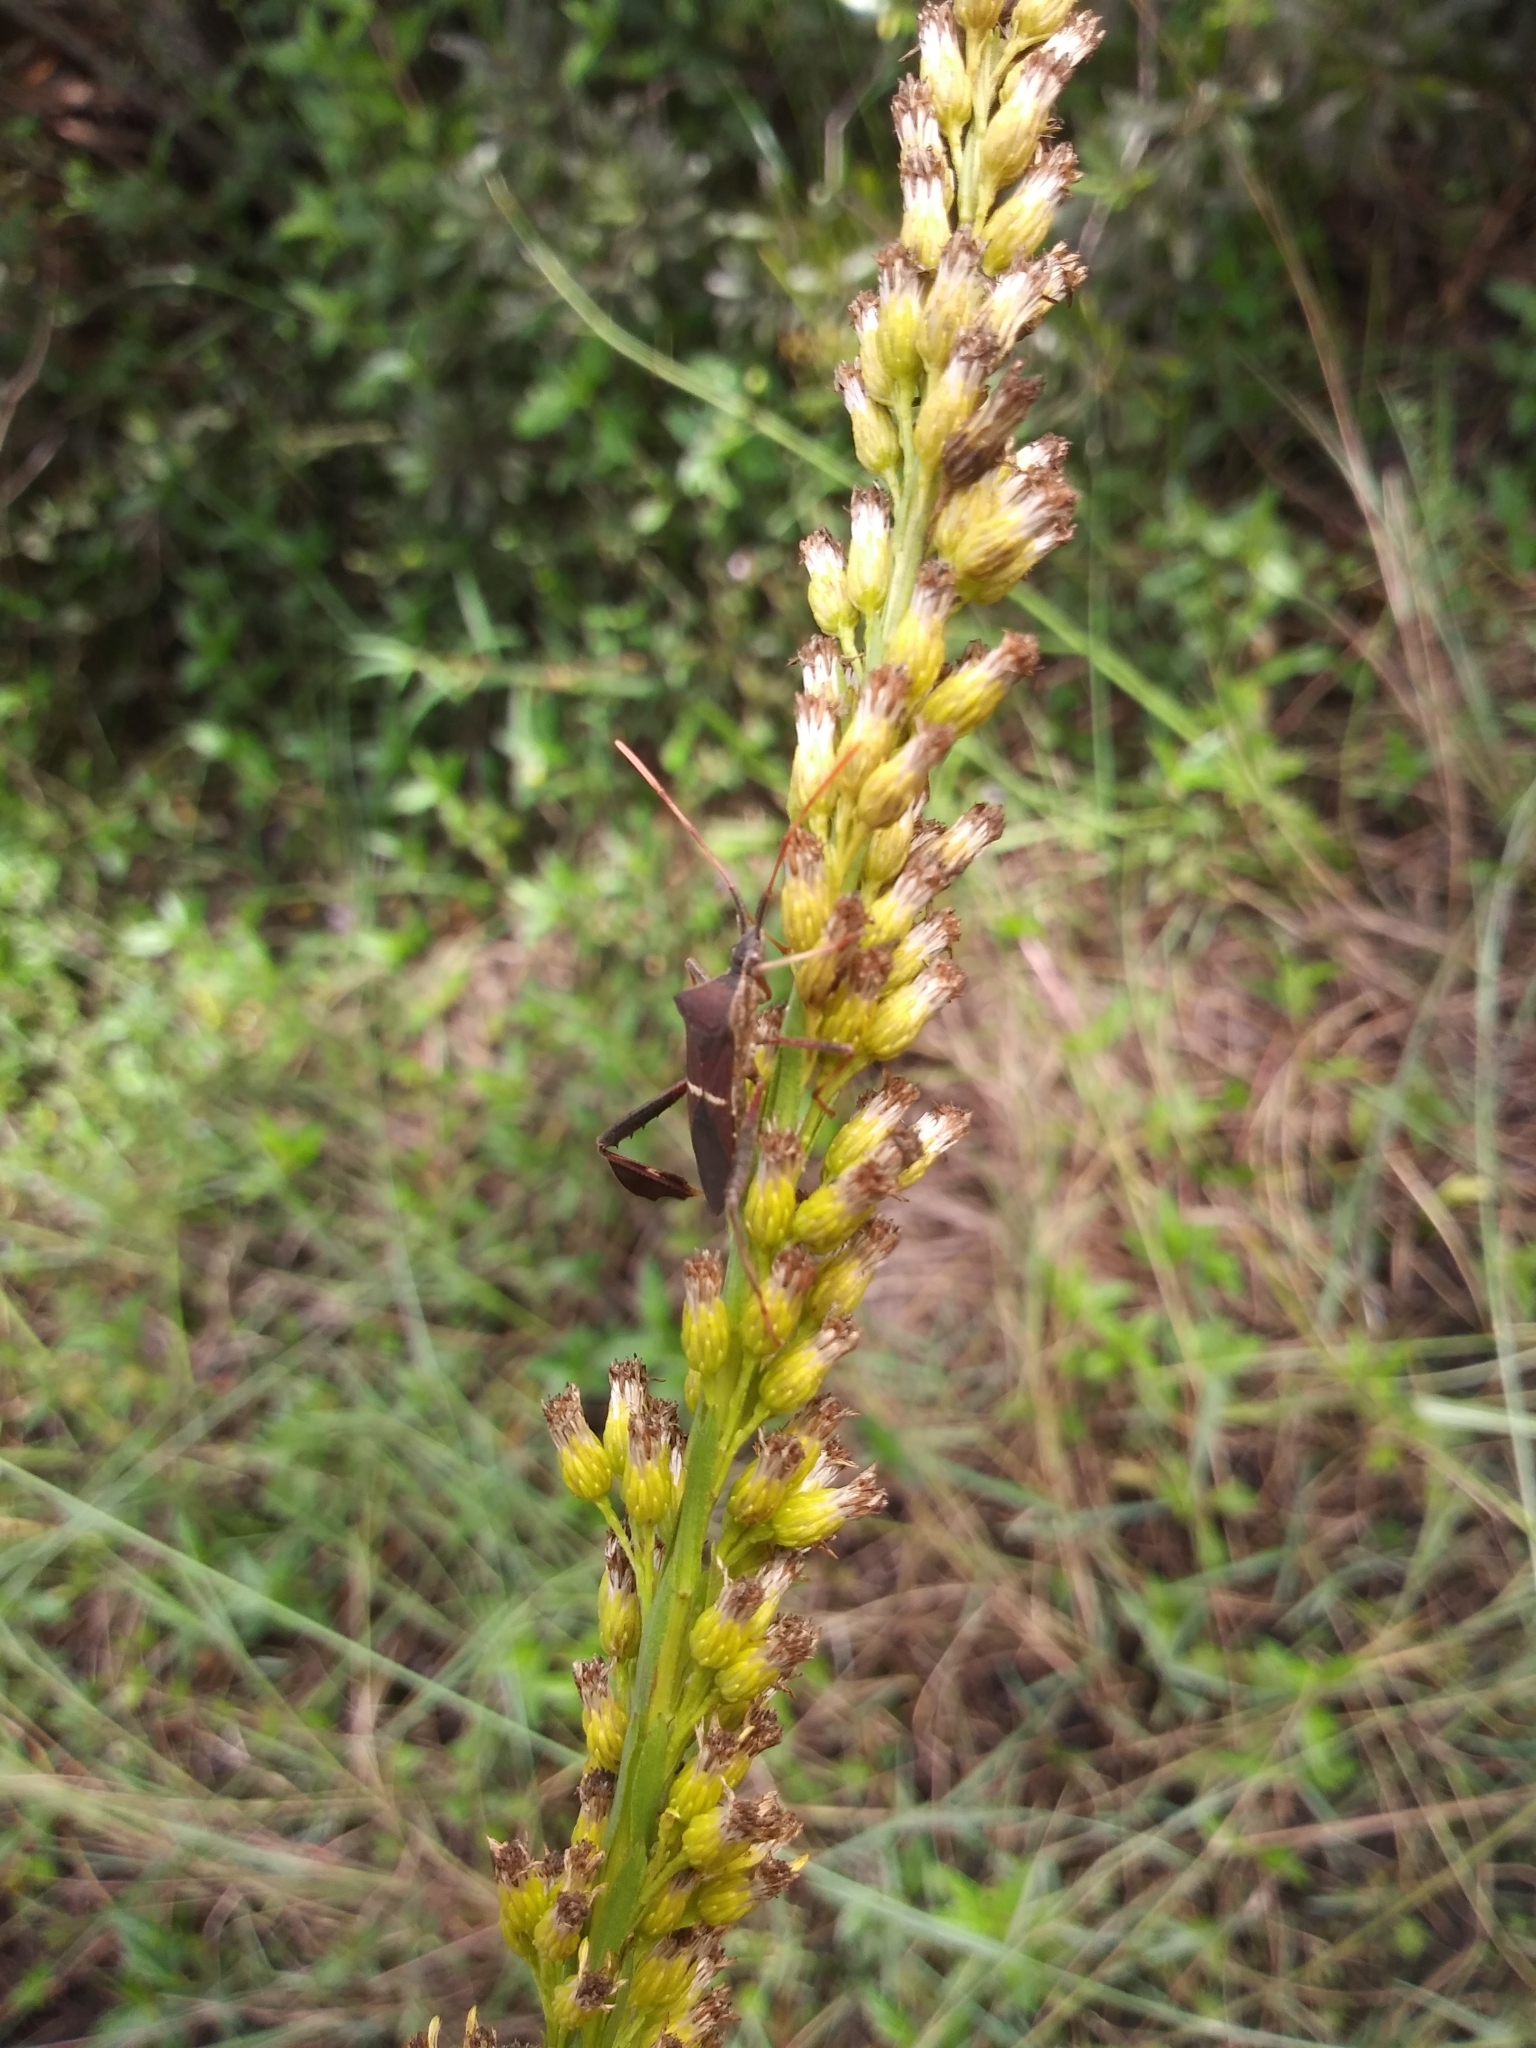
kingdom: Animalia
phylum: Arthropoda
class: Insecta
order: Hemiptera
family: Coreidae
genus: Leptoglossus
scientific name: Leptoglossus phyllopus
